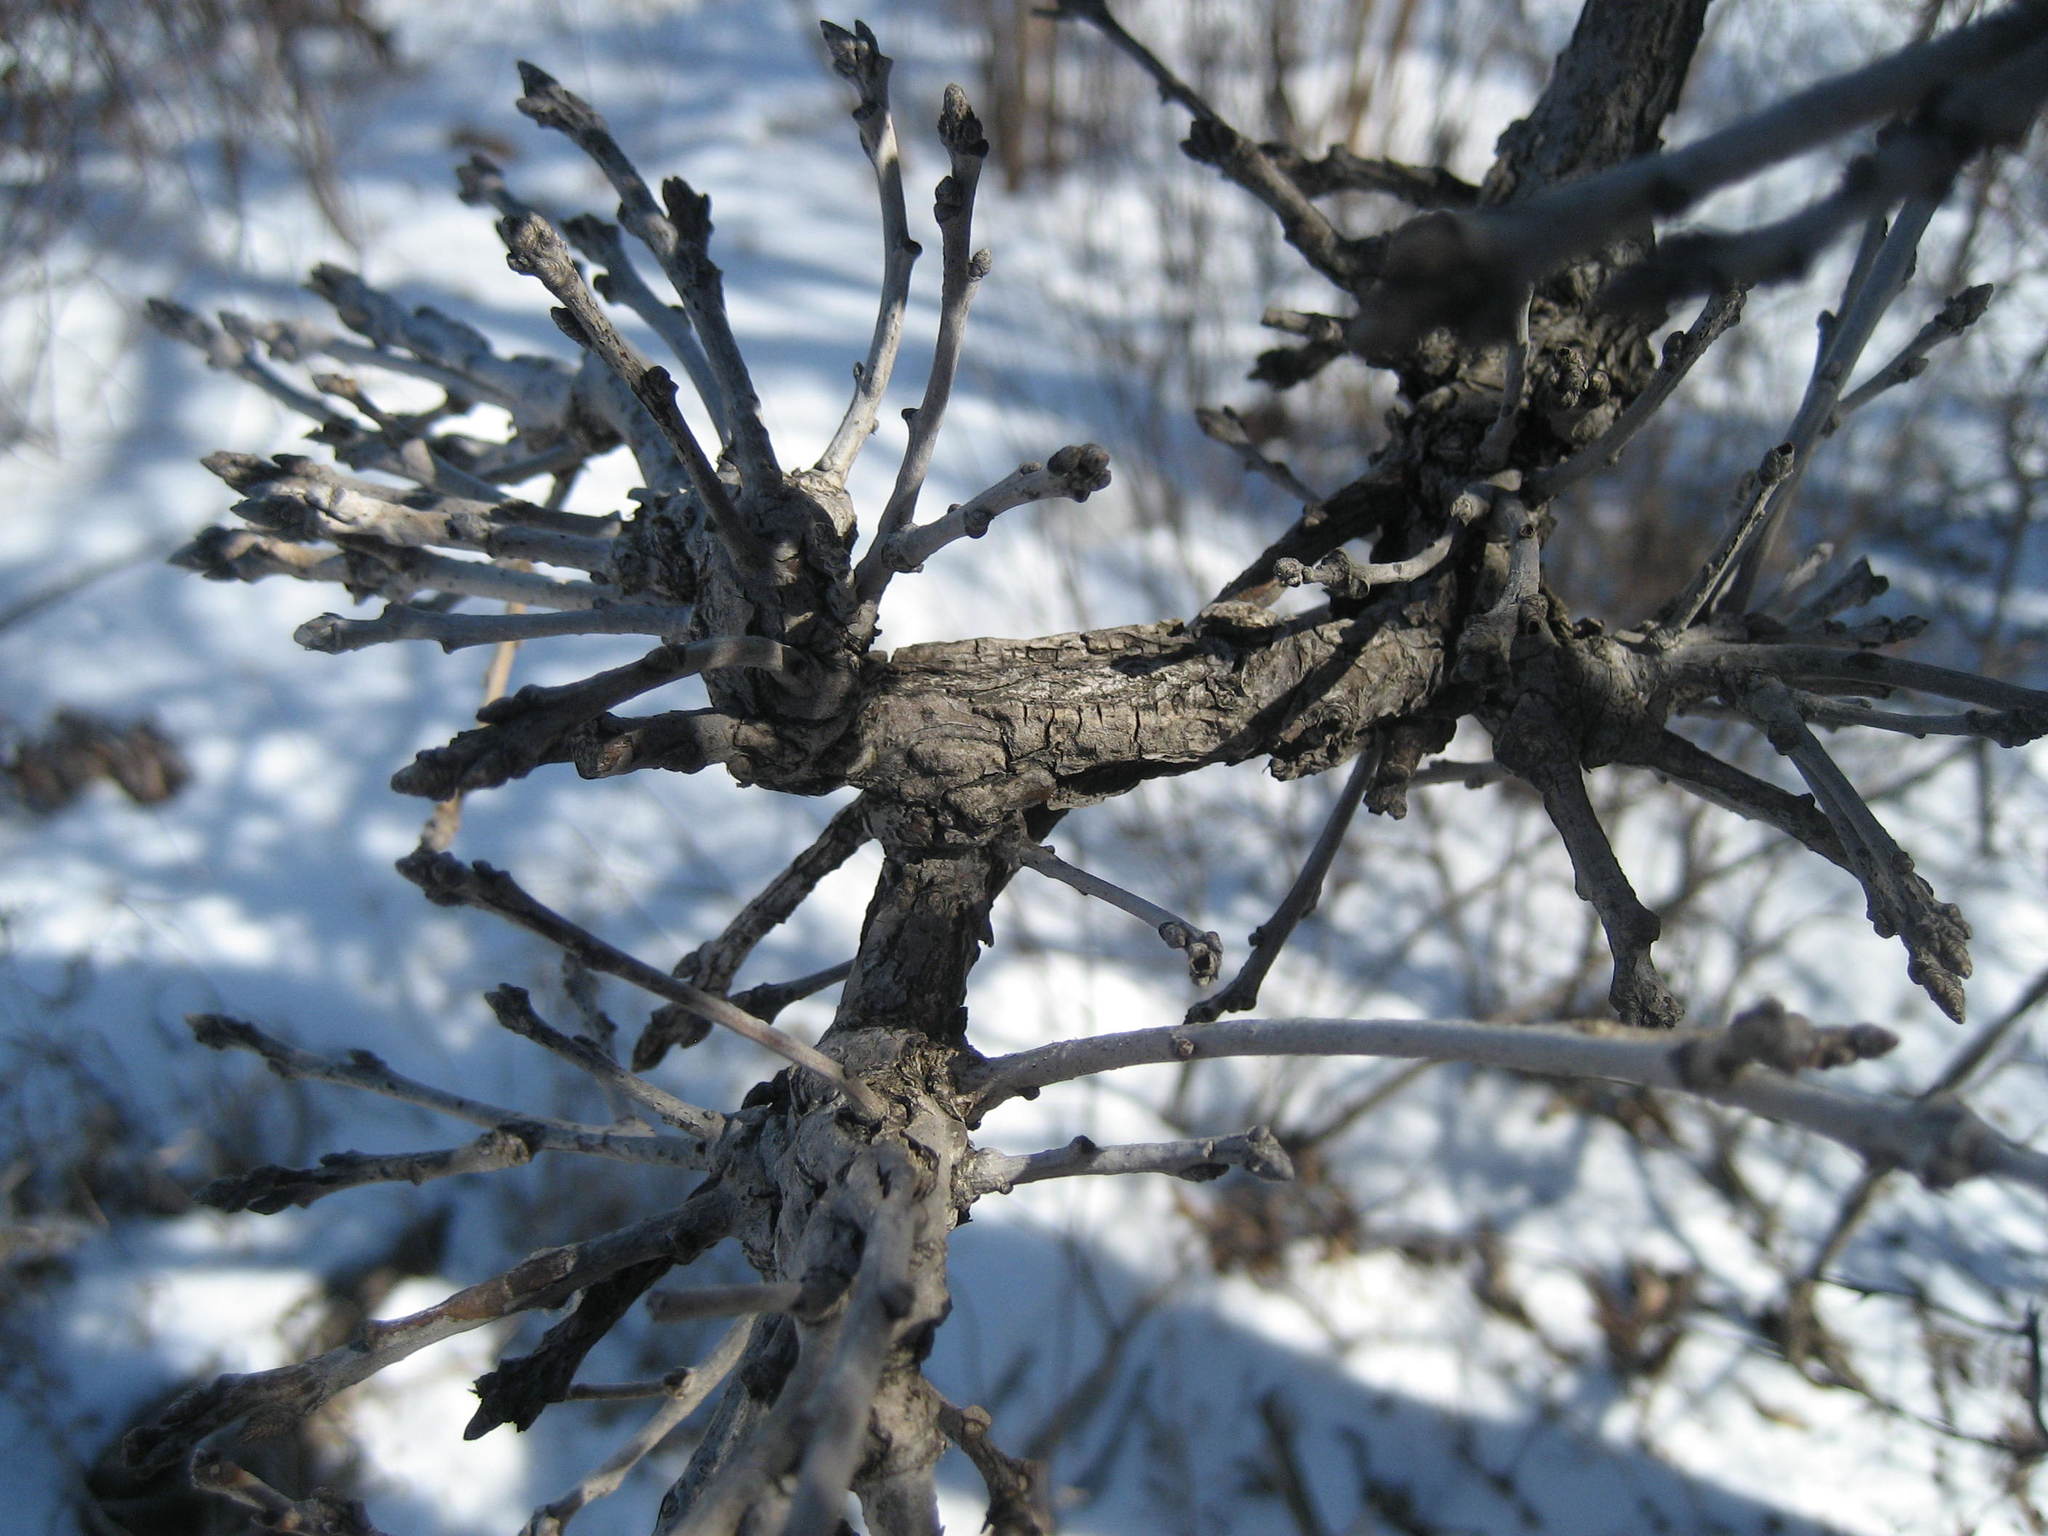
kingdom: Plantae
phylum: Tracheophyta
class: Magnoliopsida
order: Fagales
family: Fagaceae
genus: Quercus
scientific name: Quercus macrocarpa
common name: Bur oak
